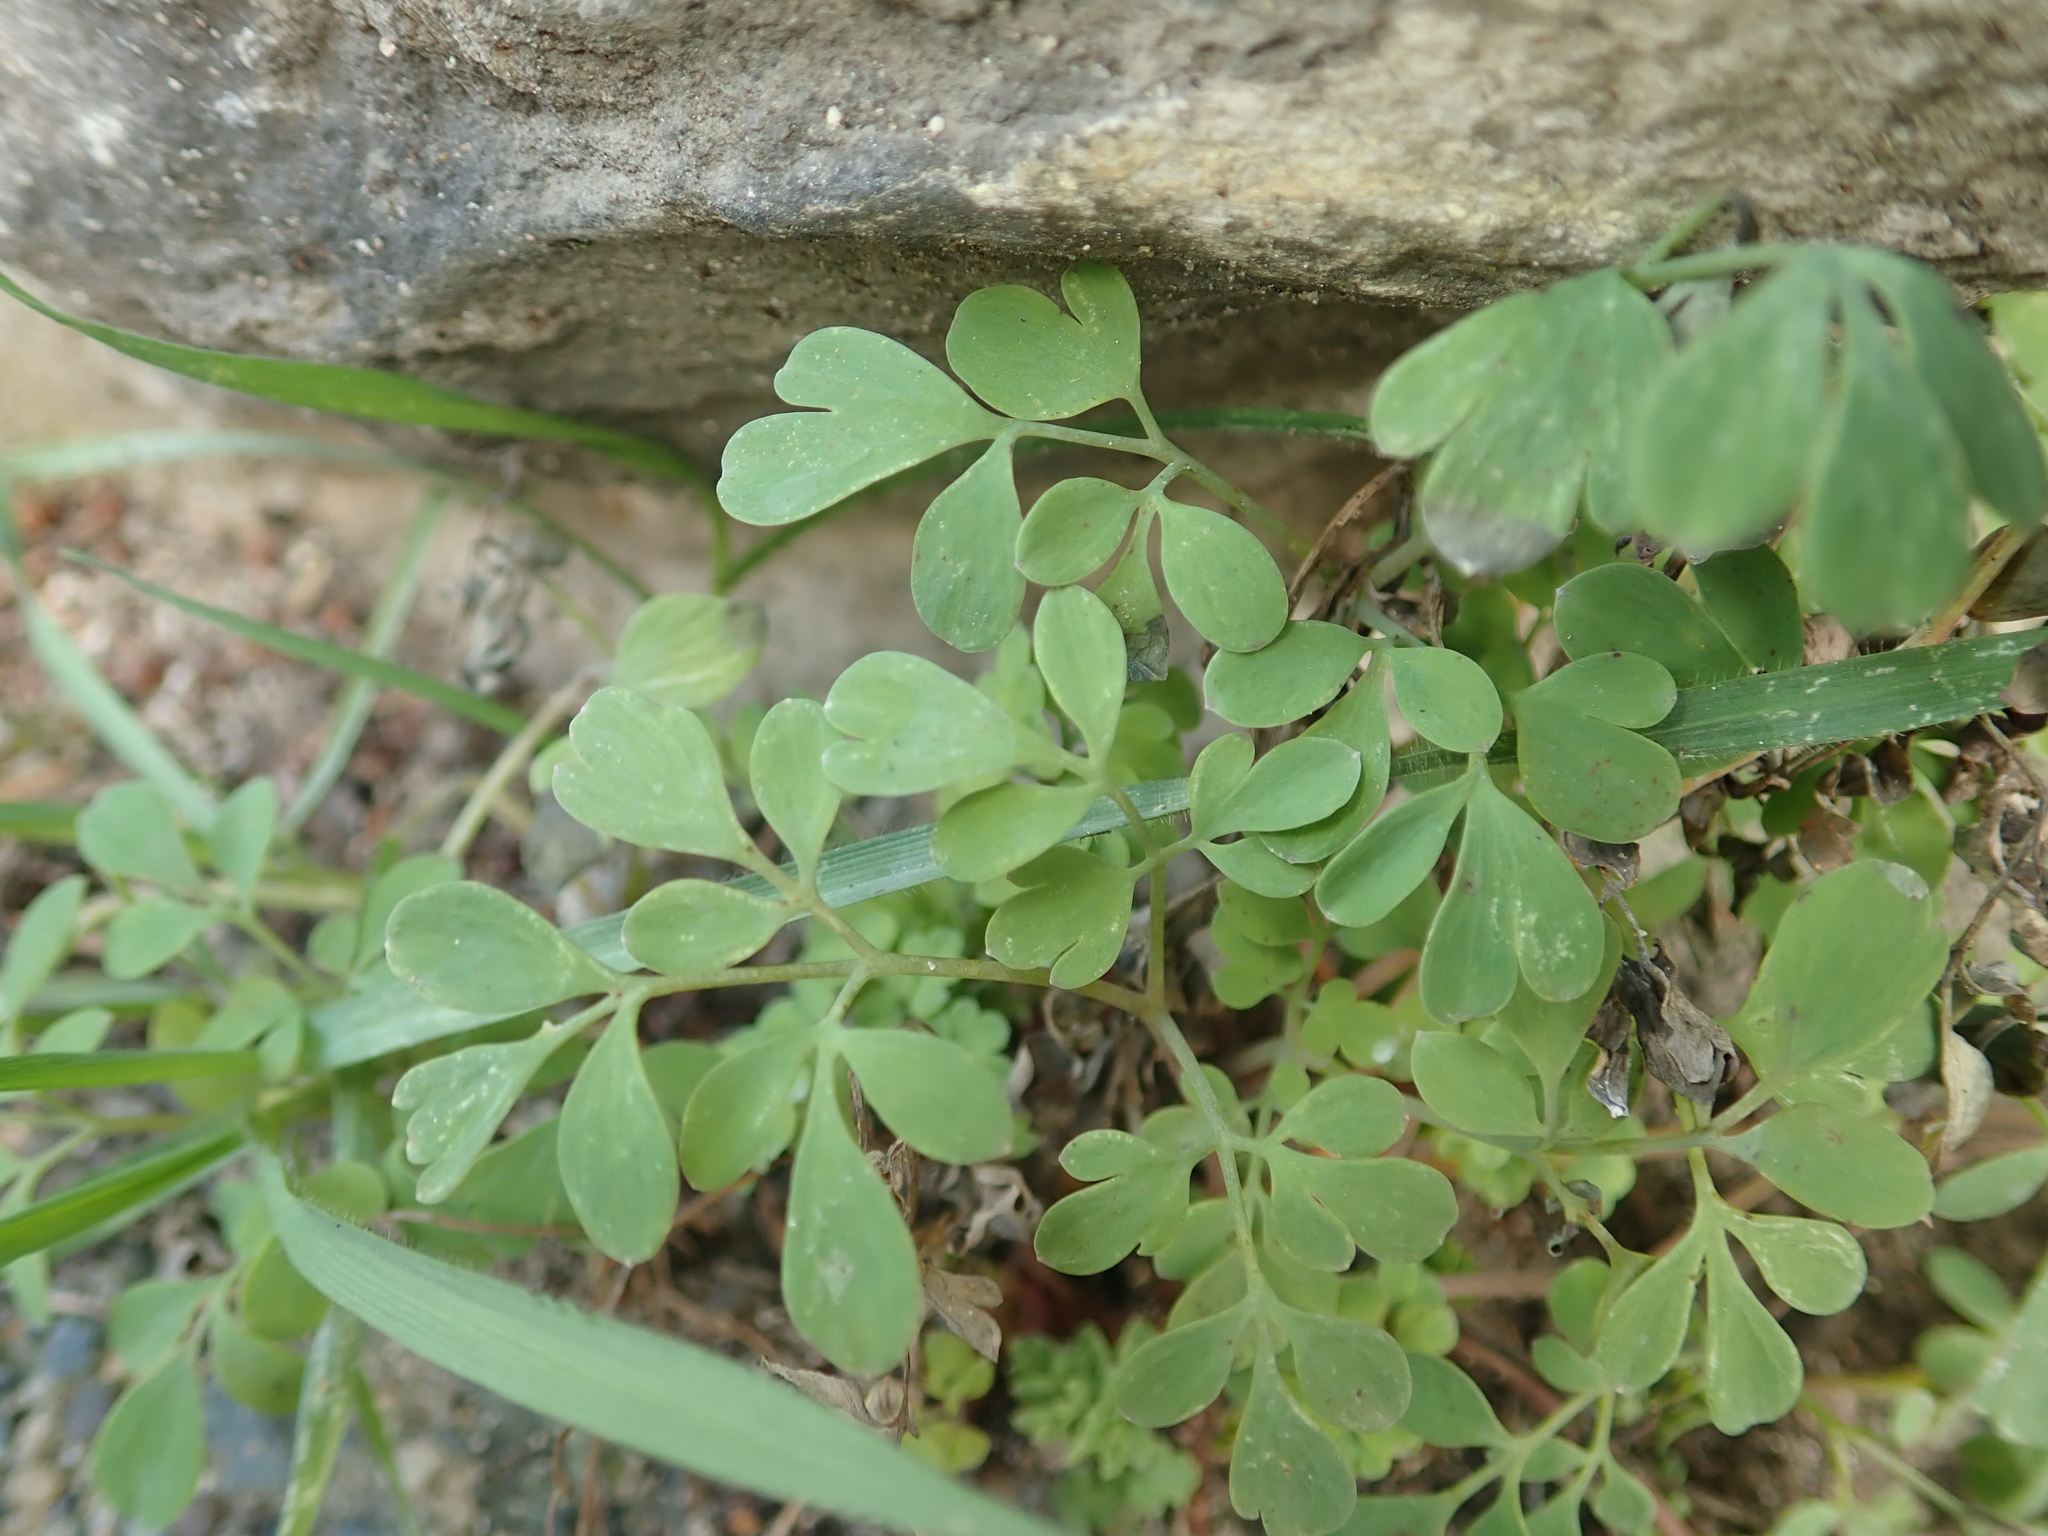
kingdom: Plantae
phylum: Tracheophyta
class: Magnoliopsida
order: Ranunculales
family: Papaveraceae
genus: Pseudofumaria
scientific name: Pseudofumaria lutea
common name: Yellow corydalis
